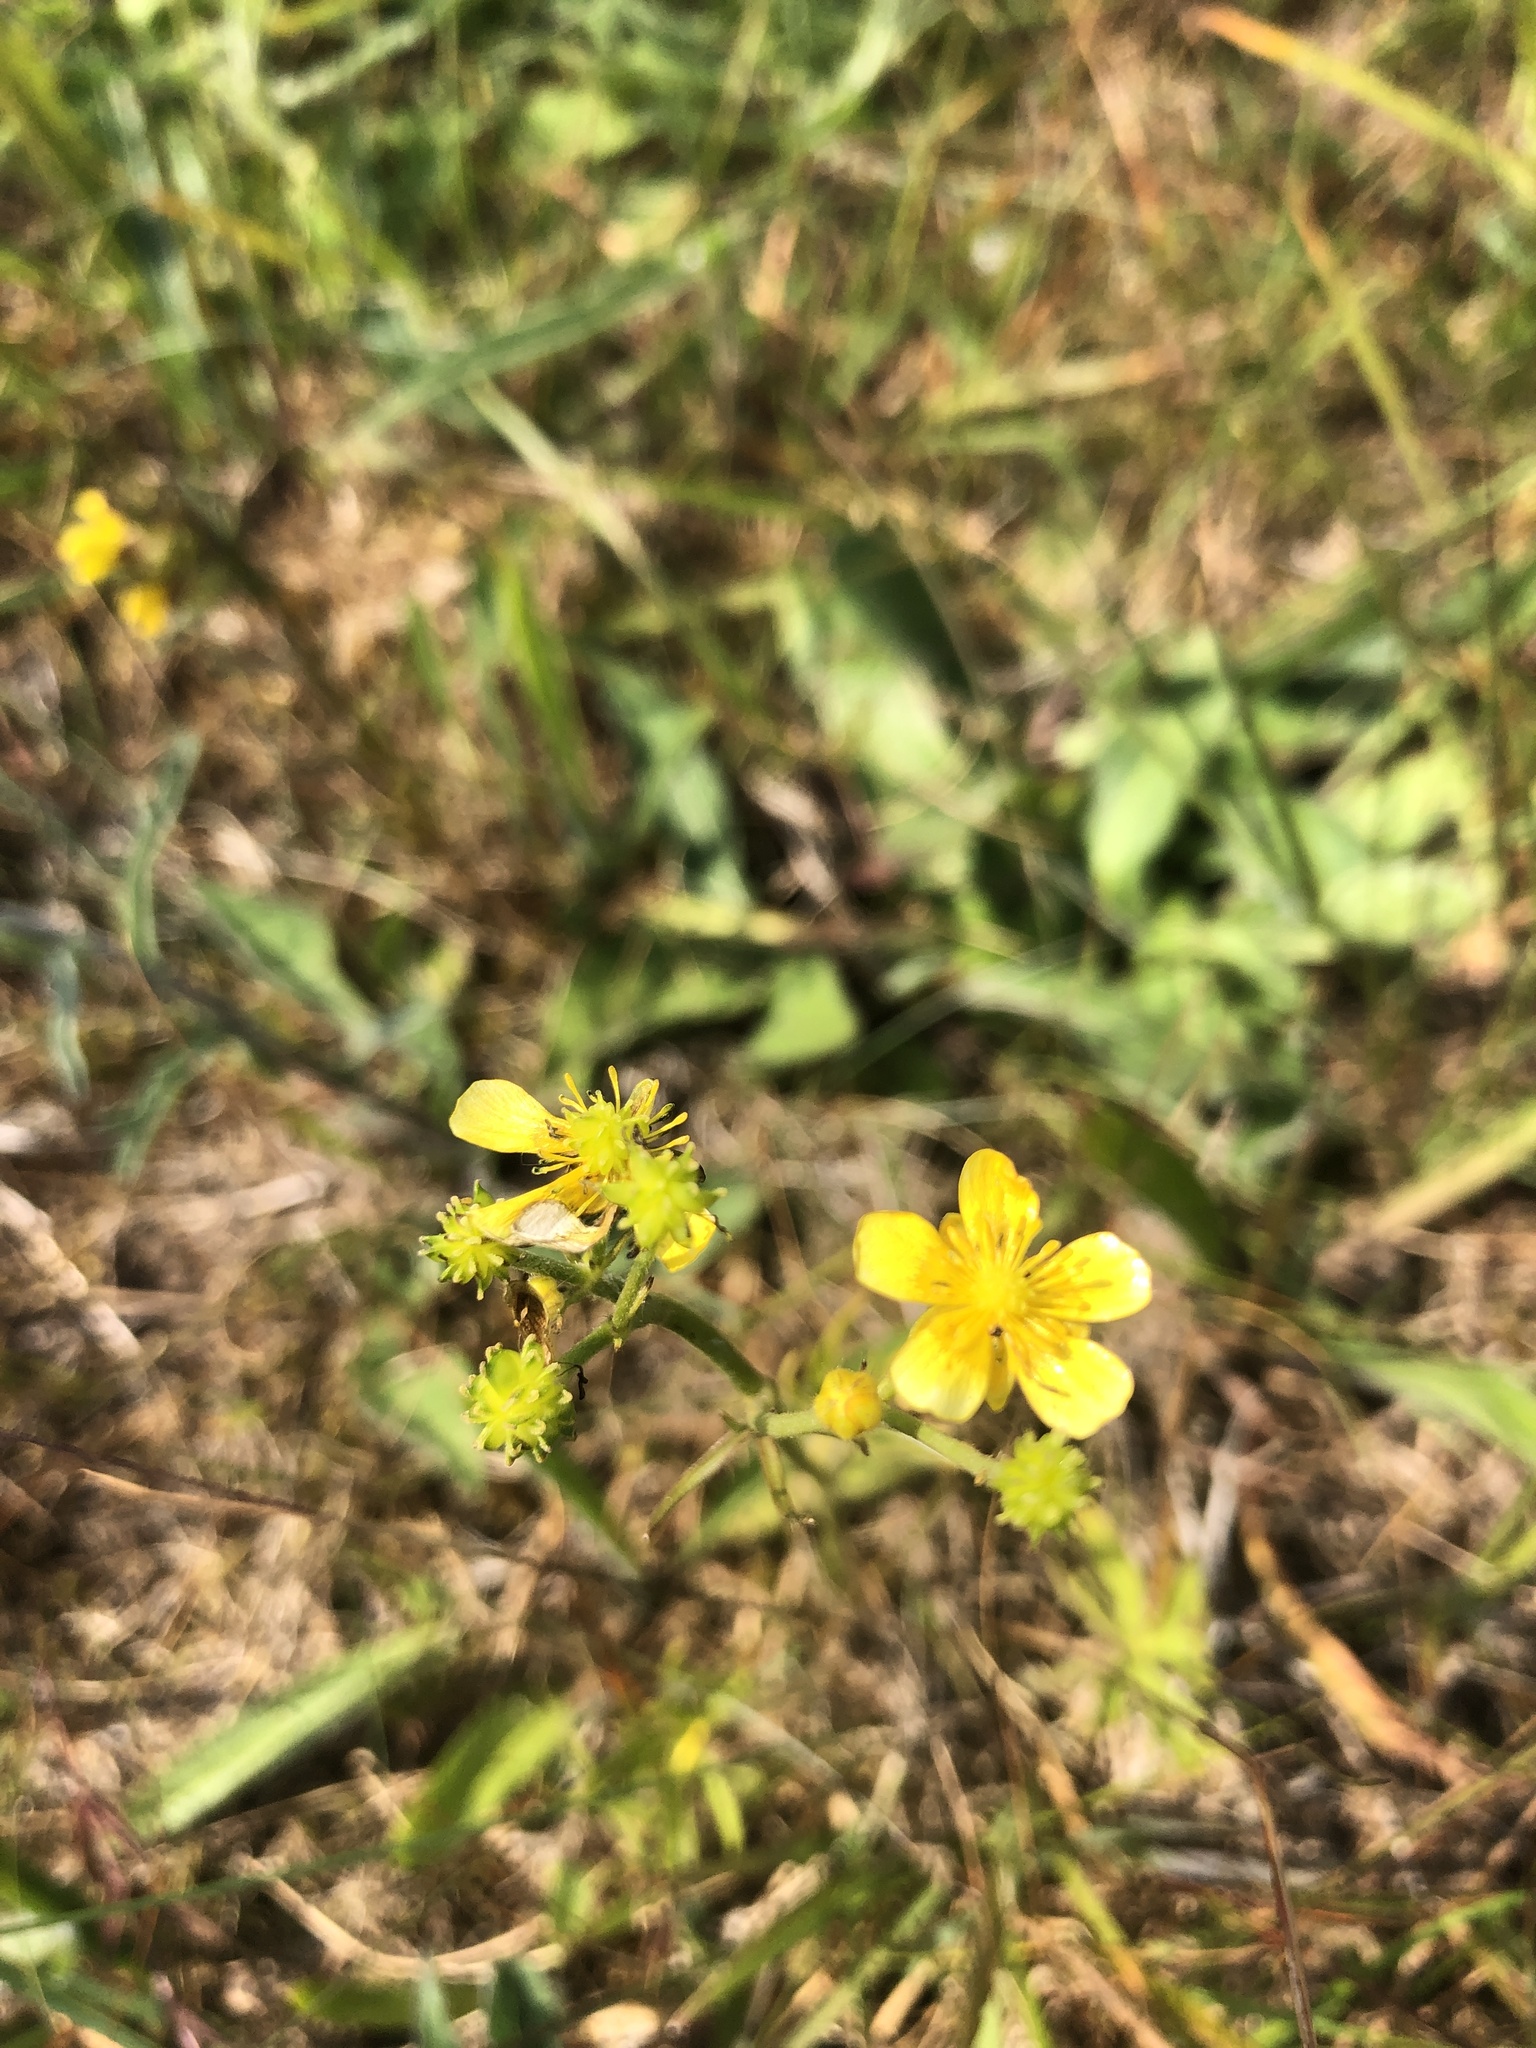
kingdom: Plantae
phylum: Tracheophyta
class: Magnoliopsida
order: Ranunculales
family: Ranunculaceae
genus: Ranunculus
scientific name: Ranunculus flammula
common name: Lesser spearwort
